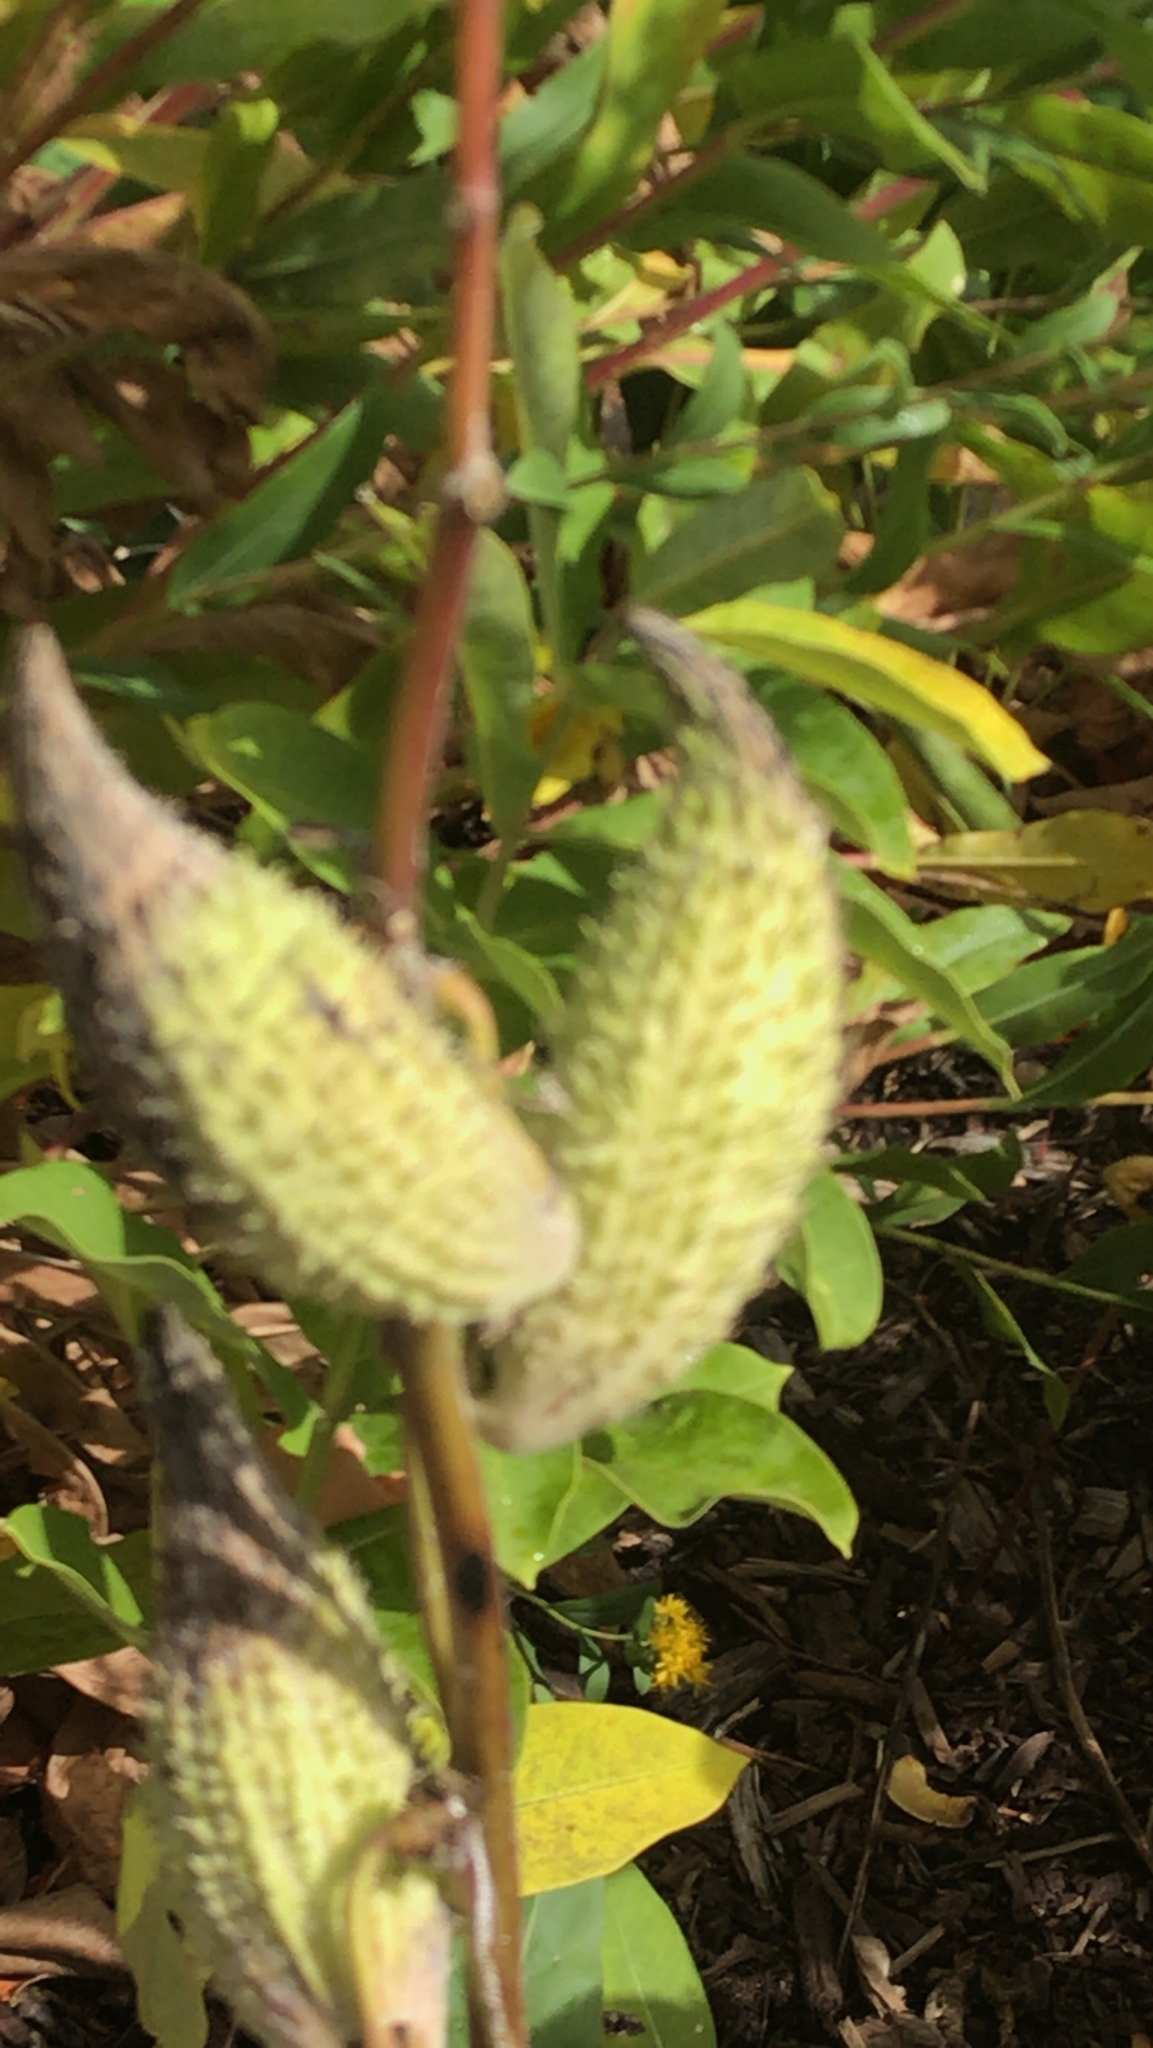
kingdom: Plantae
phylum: Tracheophyta
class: Magnoliopsida
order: Gentianales
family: Apocynaceae
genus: Asclepias
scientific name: Asclepias syriaca
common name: Common milkweed
